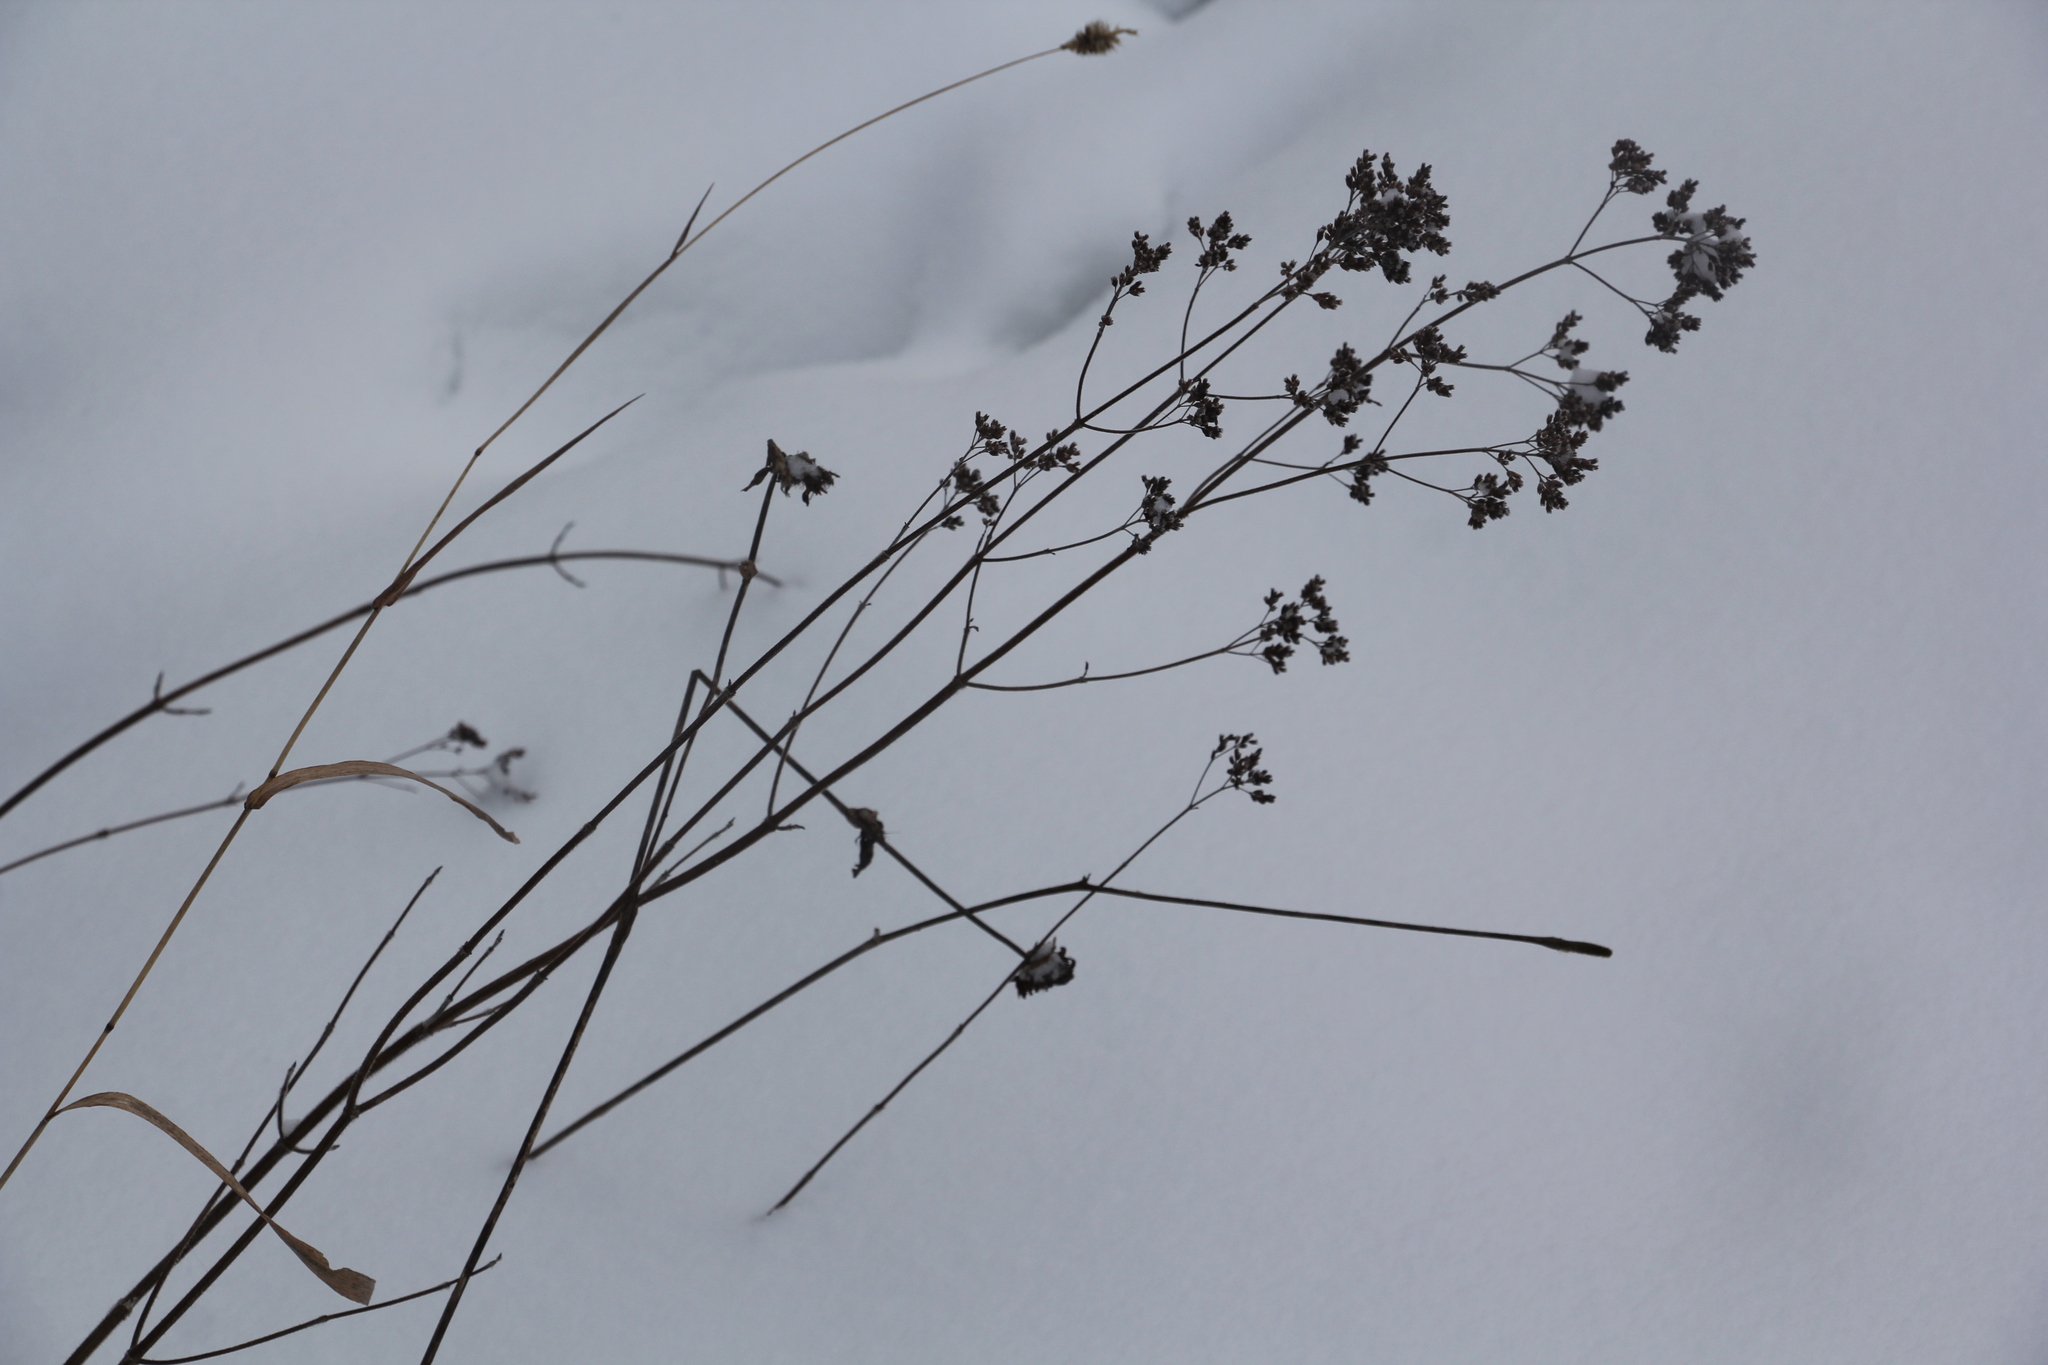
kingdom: Plantae
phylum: Tracheophyta
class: Magnoliopsida
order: Lamiales
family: Lamiaceae
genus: Origanum
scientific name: Origanum vulgare
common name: Wild marjoram
